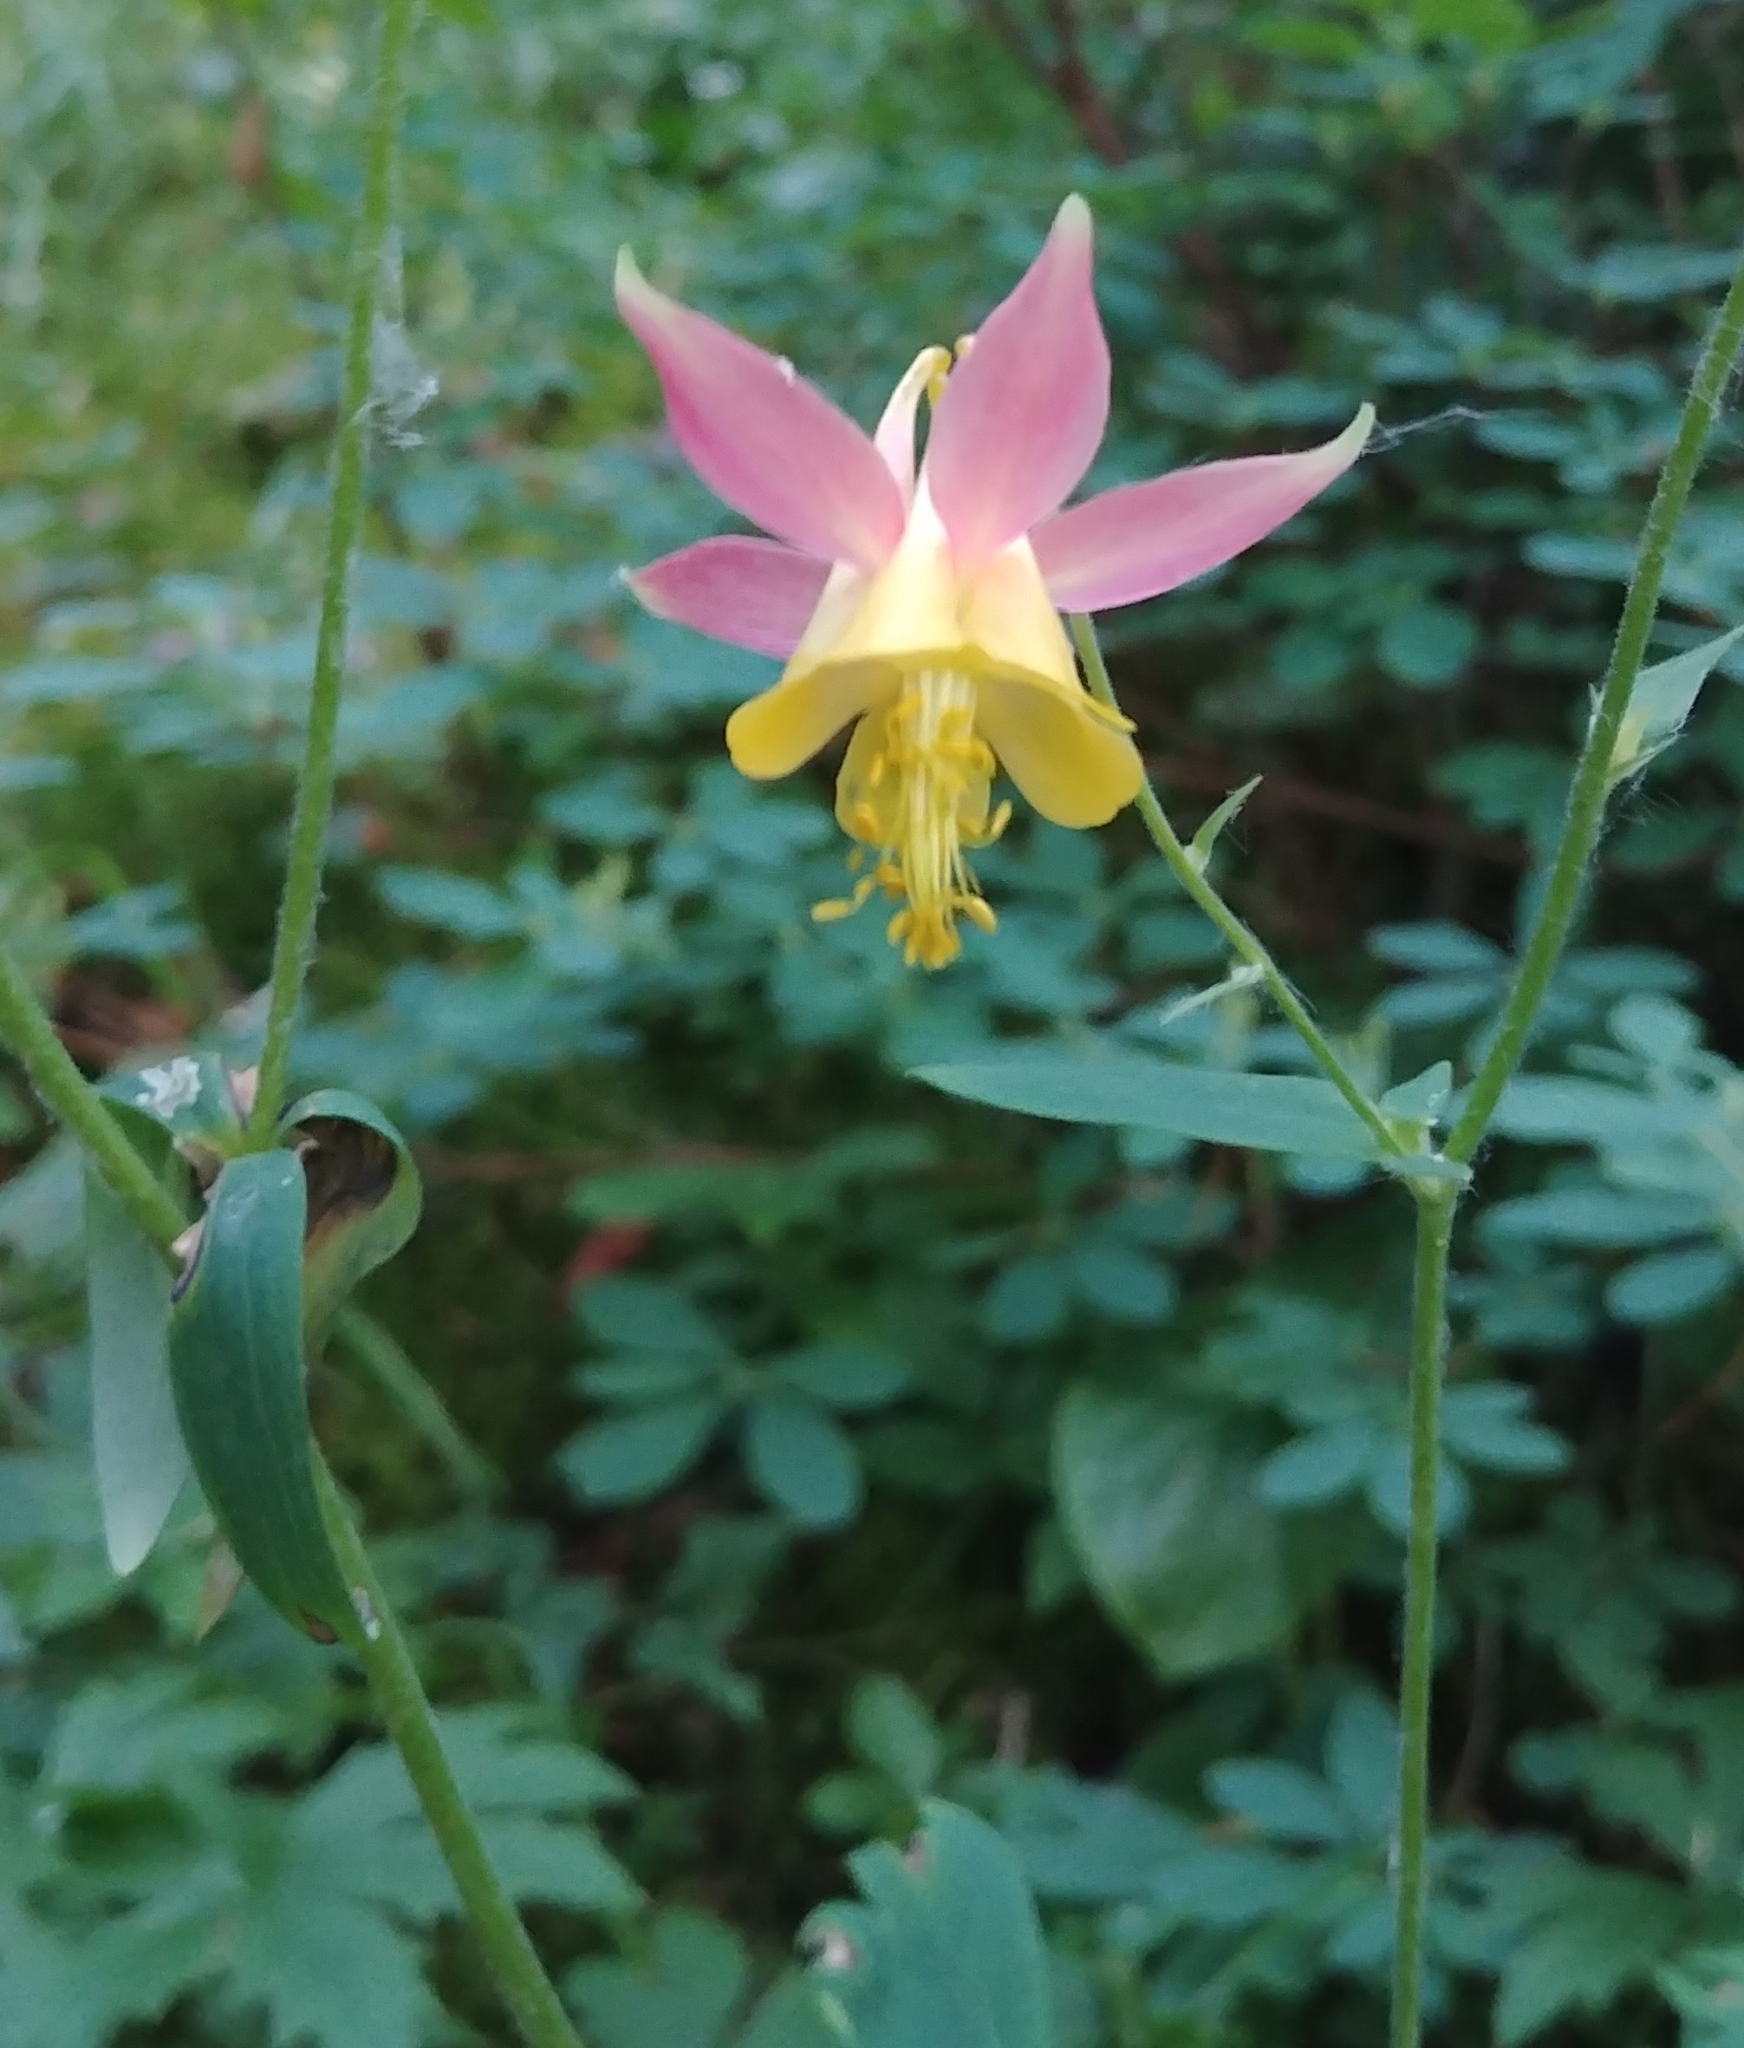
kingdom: Plantae
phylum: Tracheophyta
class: Magnoliopsida
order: Ranunculales
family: Ranunculaceae
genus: Aquilegia
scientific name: Aquilegia flavescens
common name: Yellow columbine
